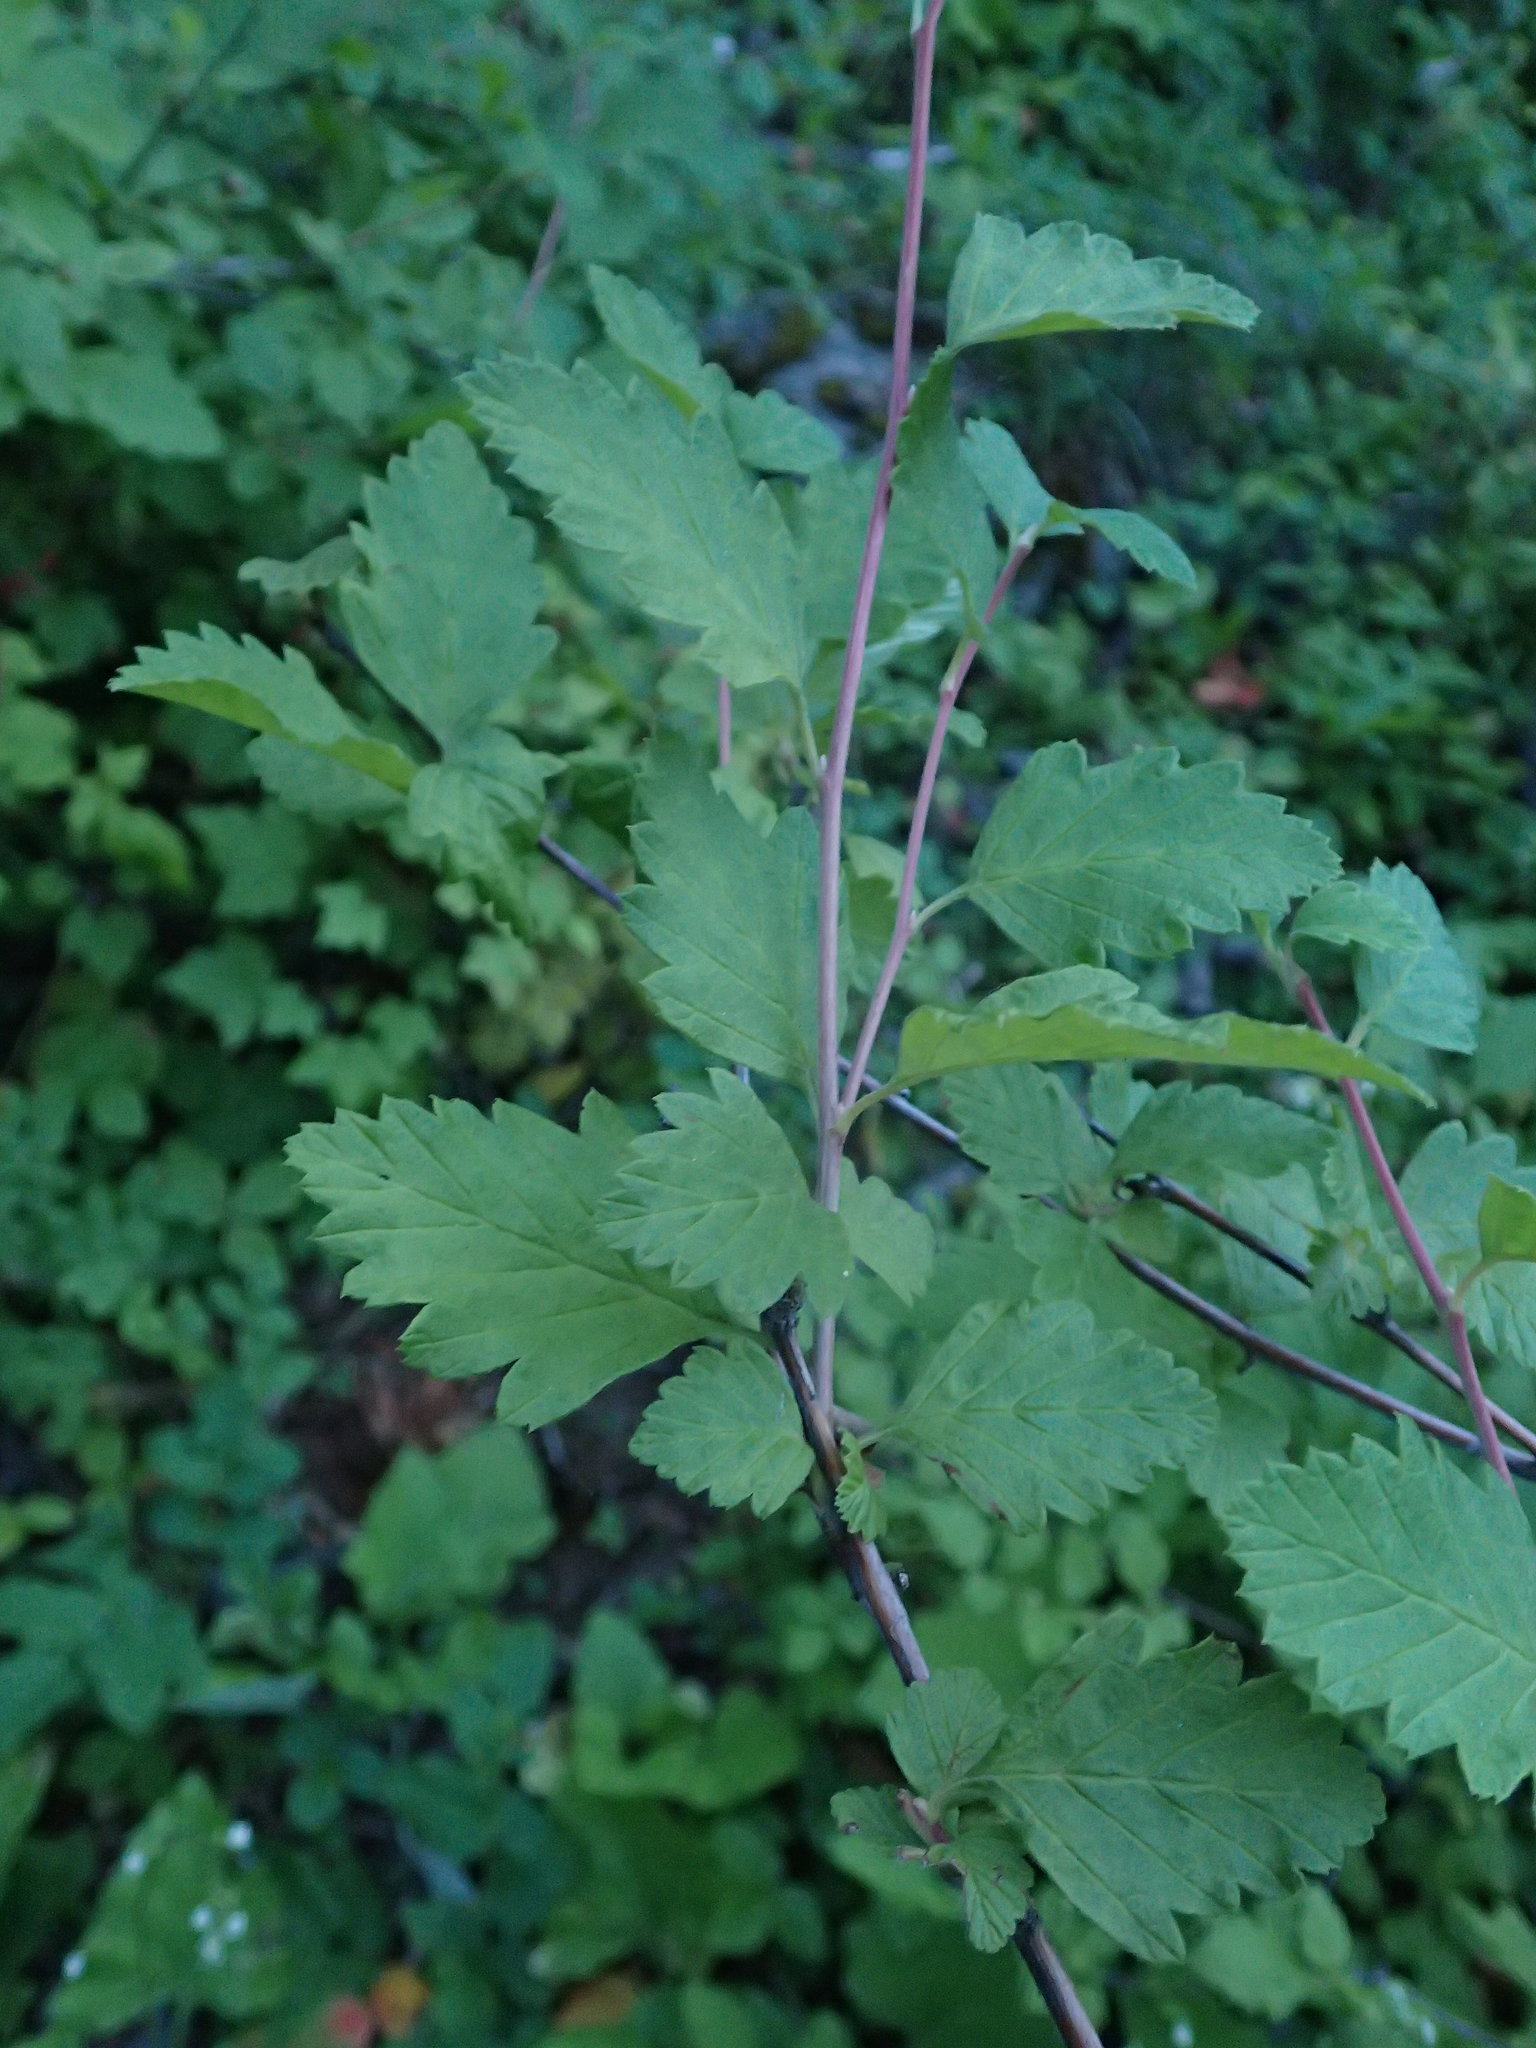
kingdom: Plantae
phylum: Tracheophyta
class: Magnoliopsida
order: Rosales
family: Rosaceae
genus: Holodiscus
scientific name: Holodiscus discolor
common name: Oceanspray
